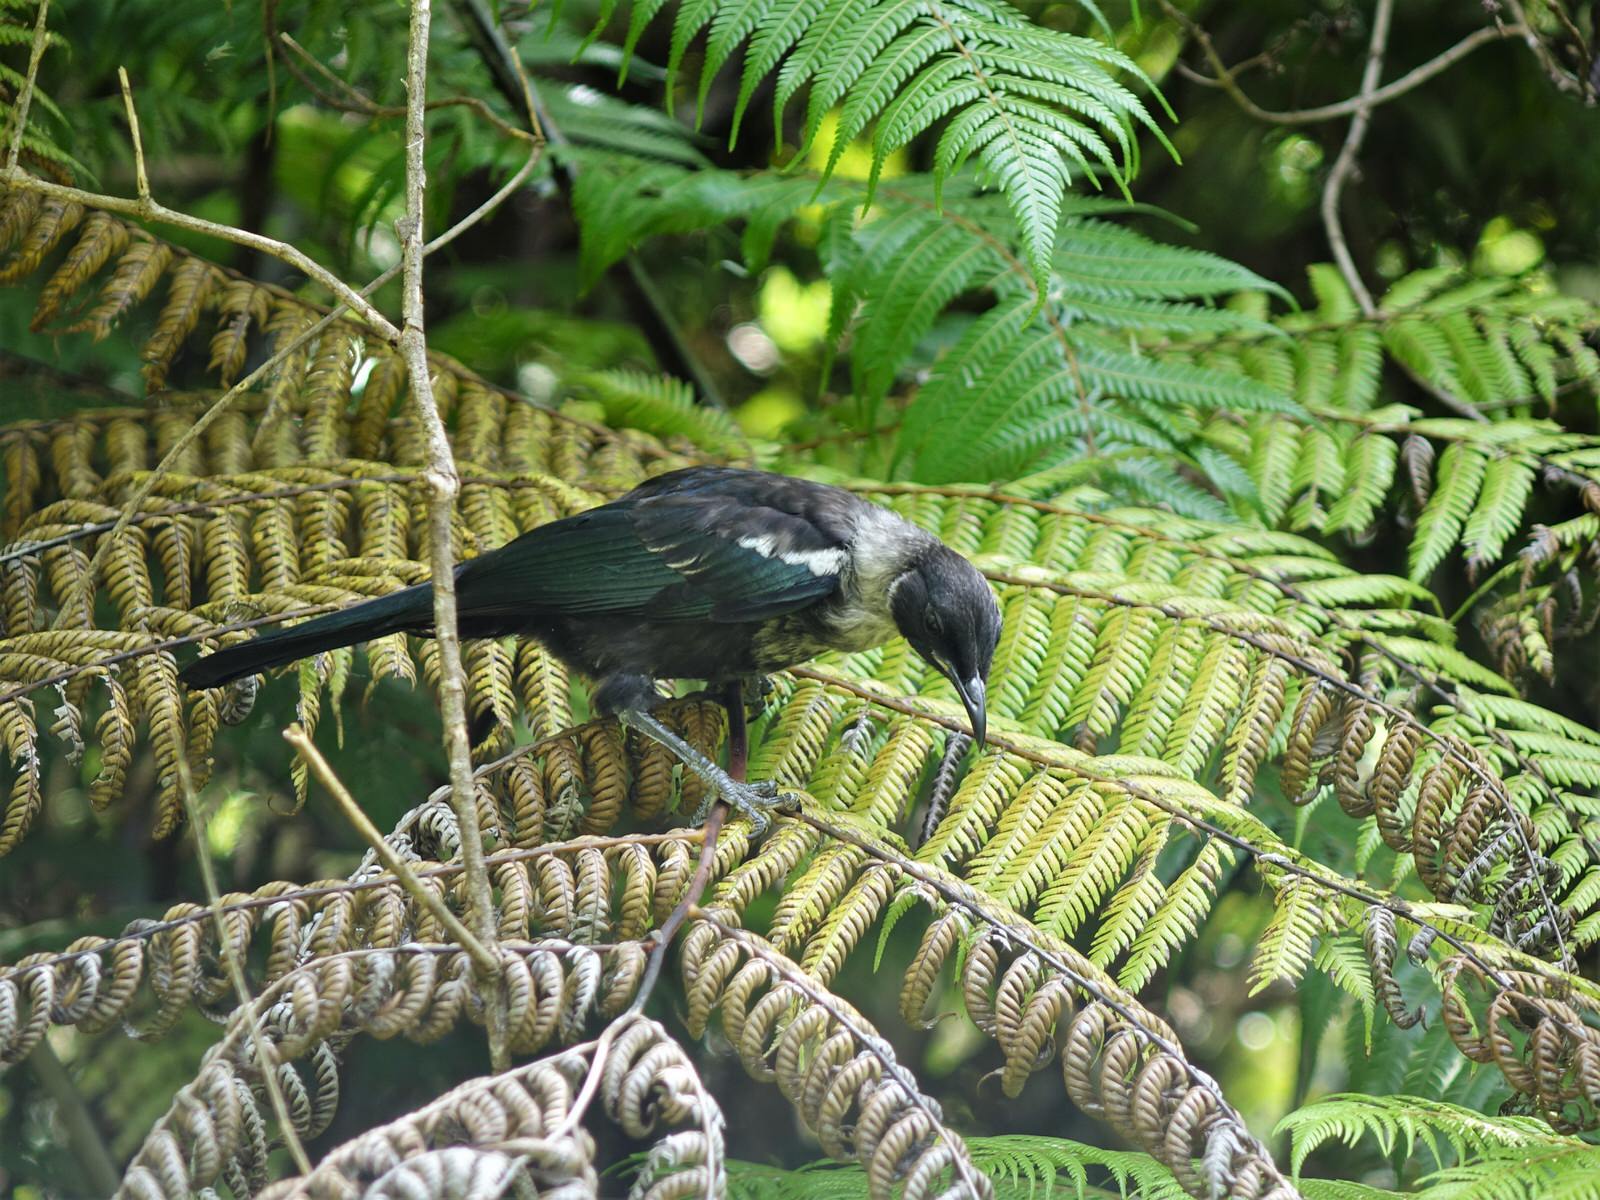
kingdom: Animalia
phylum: Chordata
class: Aves
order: Passeriformes
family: Meliphagidae
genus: Prosthemadera
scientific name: Prosthemadera novaeseelandiae
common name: Tui
